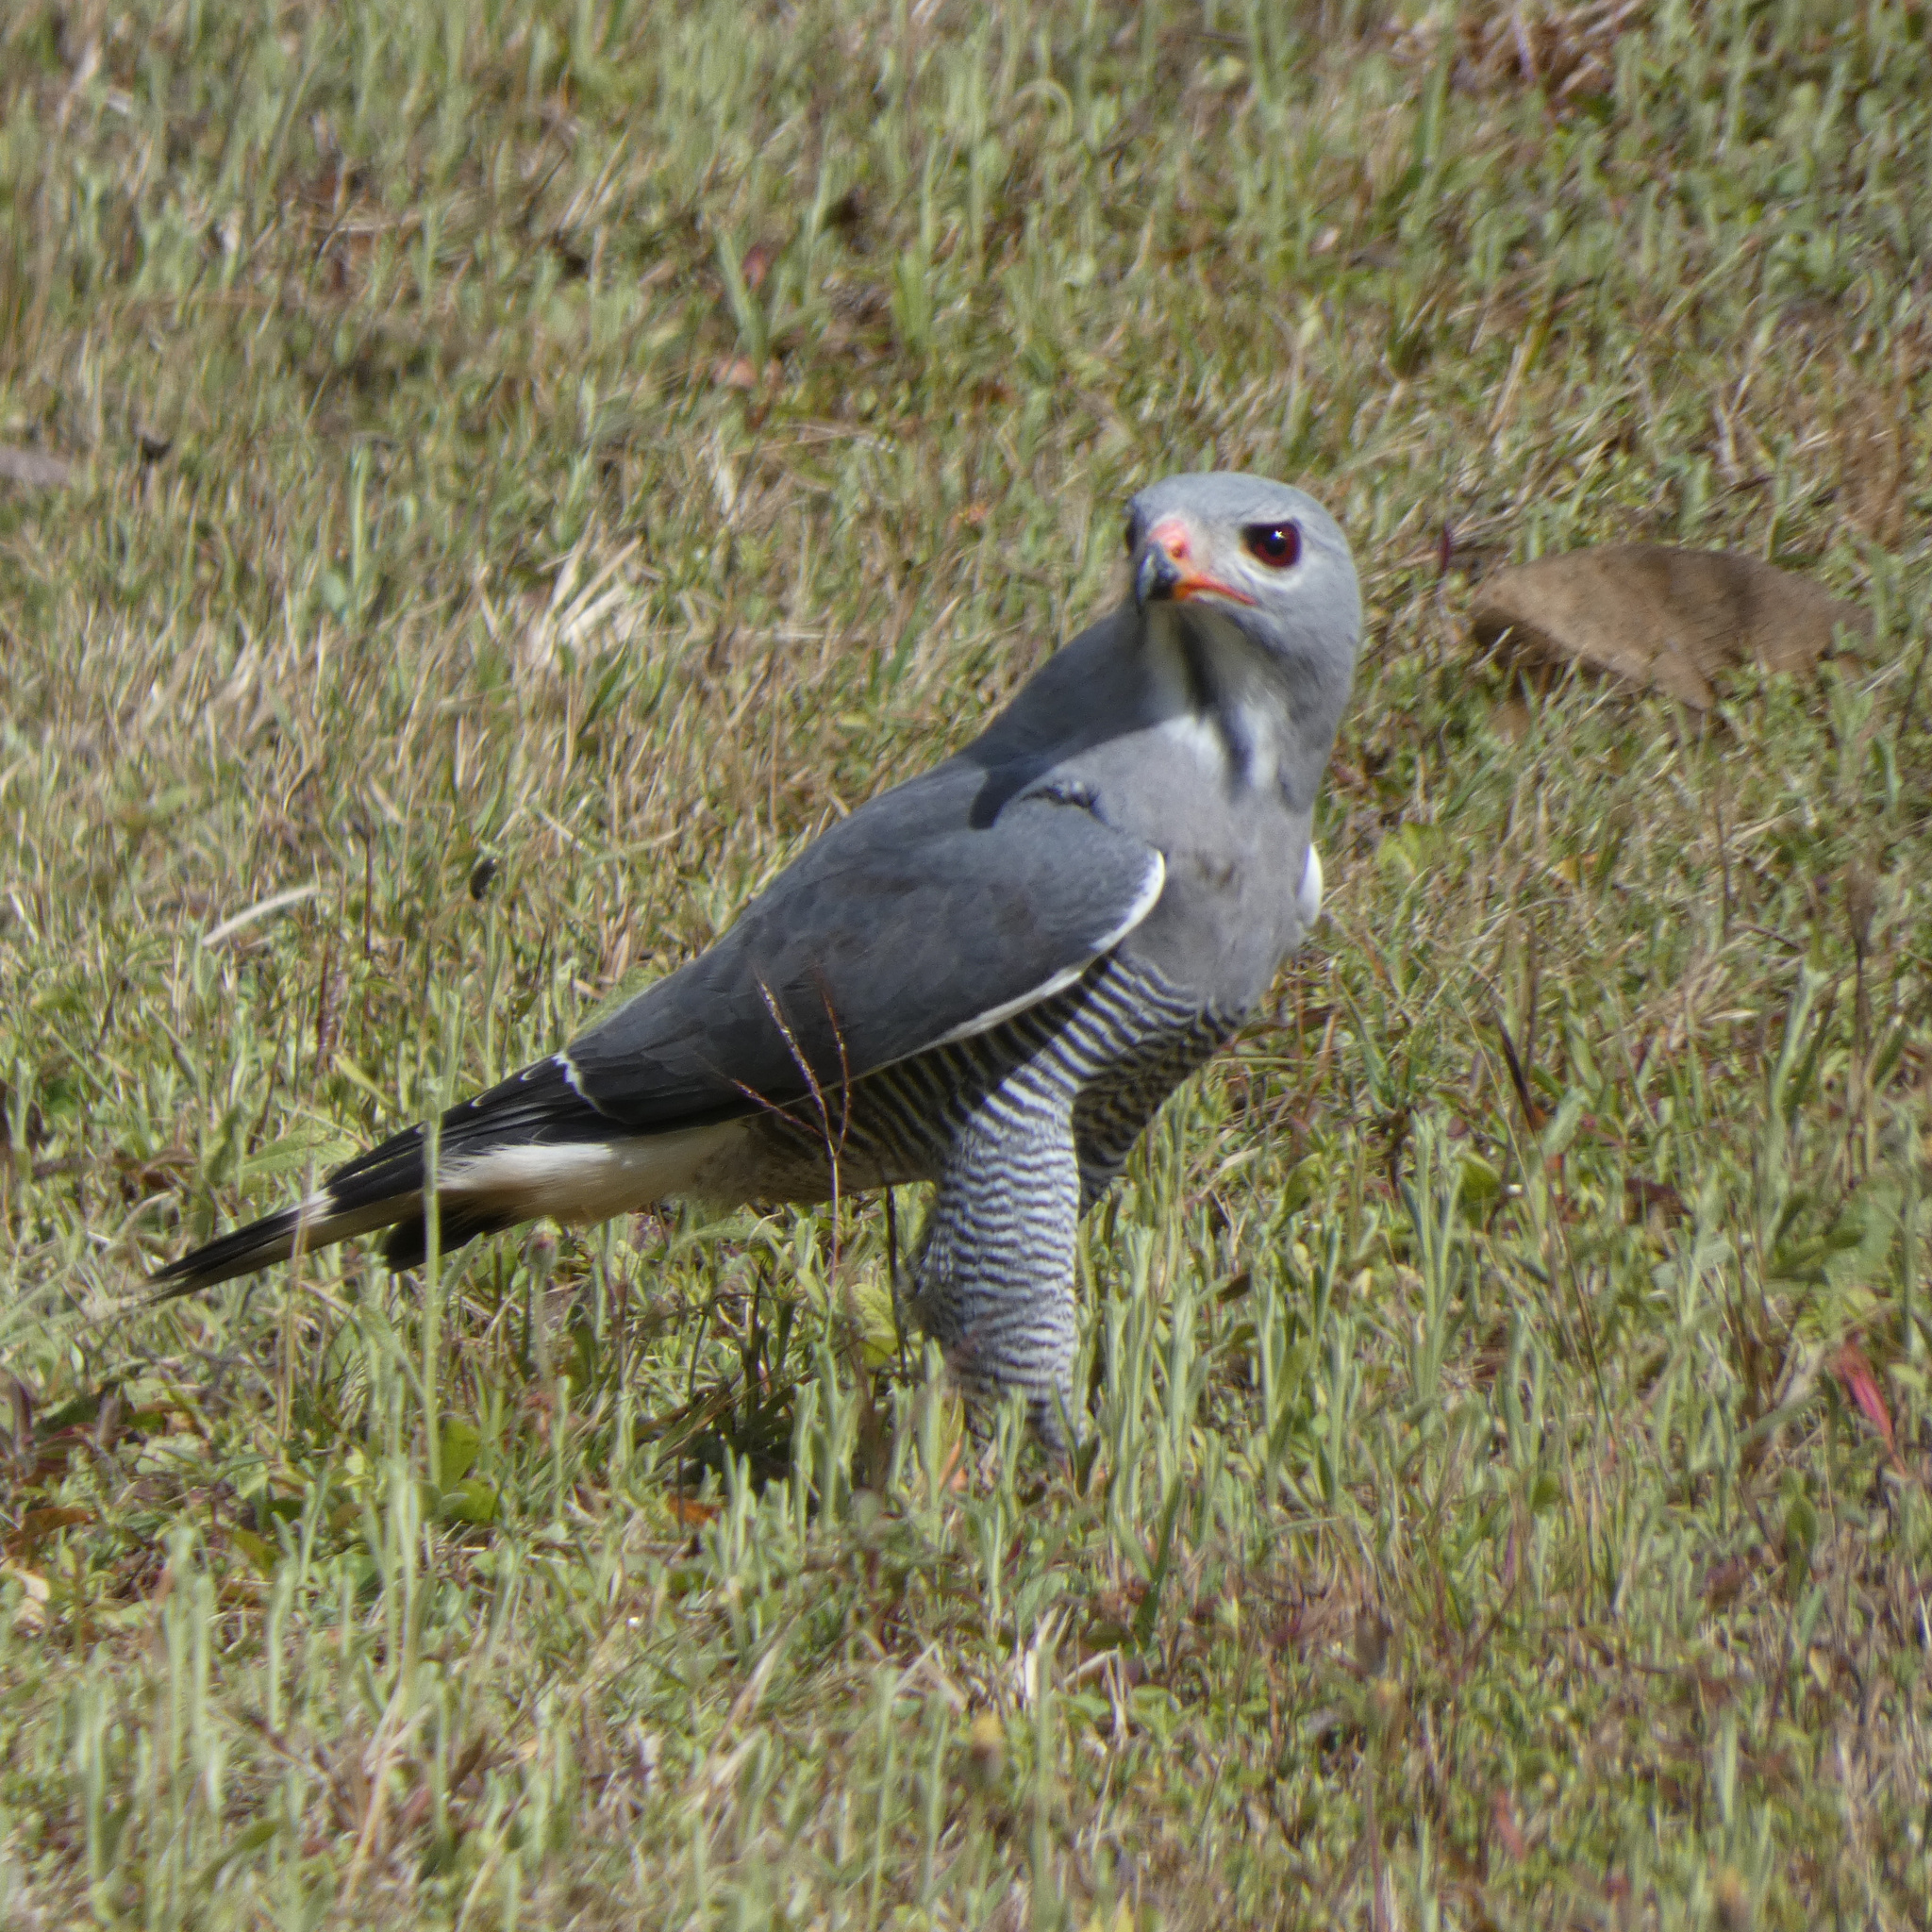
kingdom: Animalia
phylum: Chordata
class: Aves
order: Accipitriformes
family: Accipitridae
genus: Kaupifalco
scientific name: Kaupifalco monogrammicus
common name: Lizard buzzard
